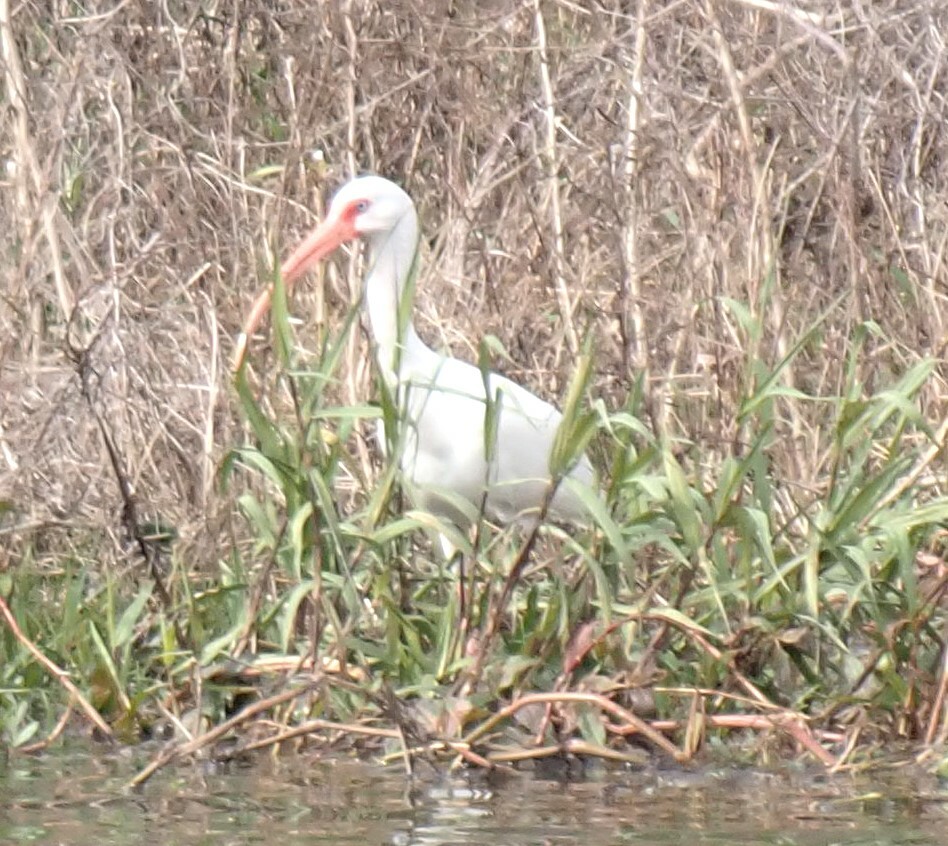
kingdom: Animalia
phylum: Chordata
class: Aves
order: Pelecaniformes
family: Threskiornithidae
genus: Eudocimus
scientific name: Eudocimus albus
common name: White ibis
